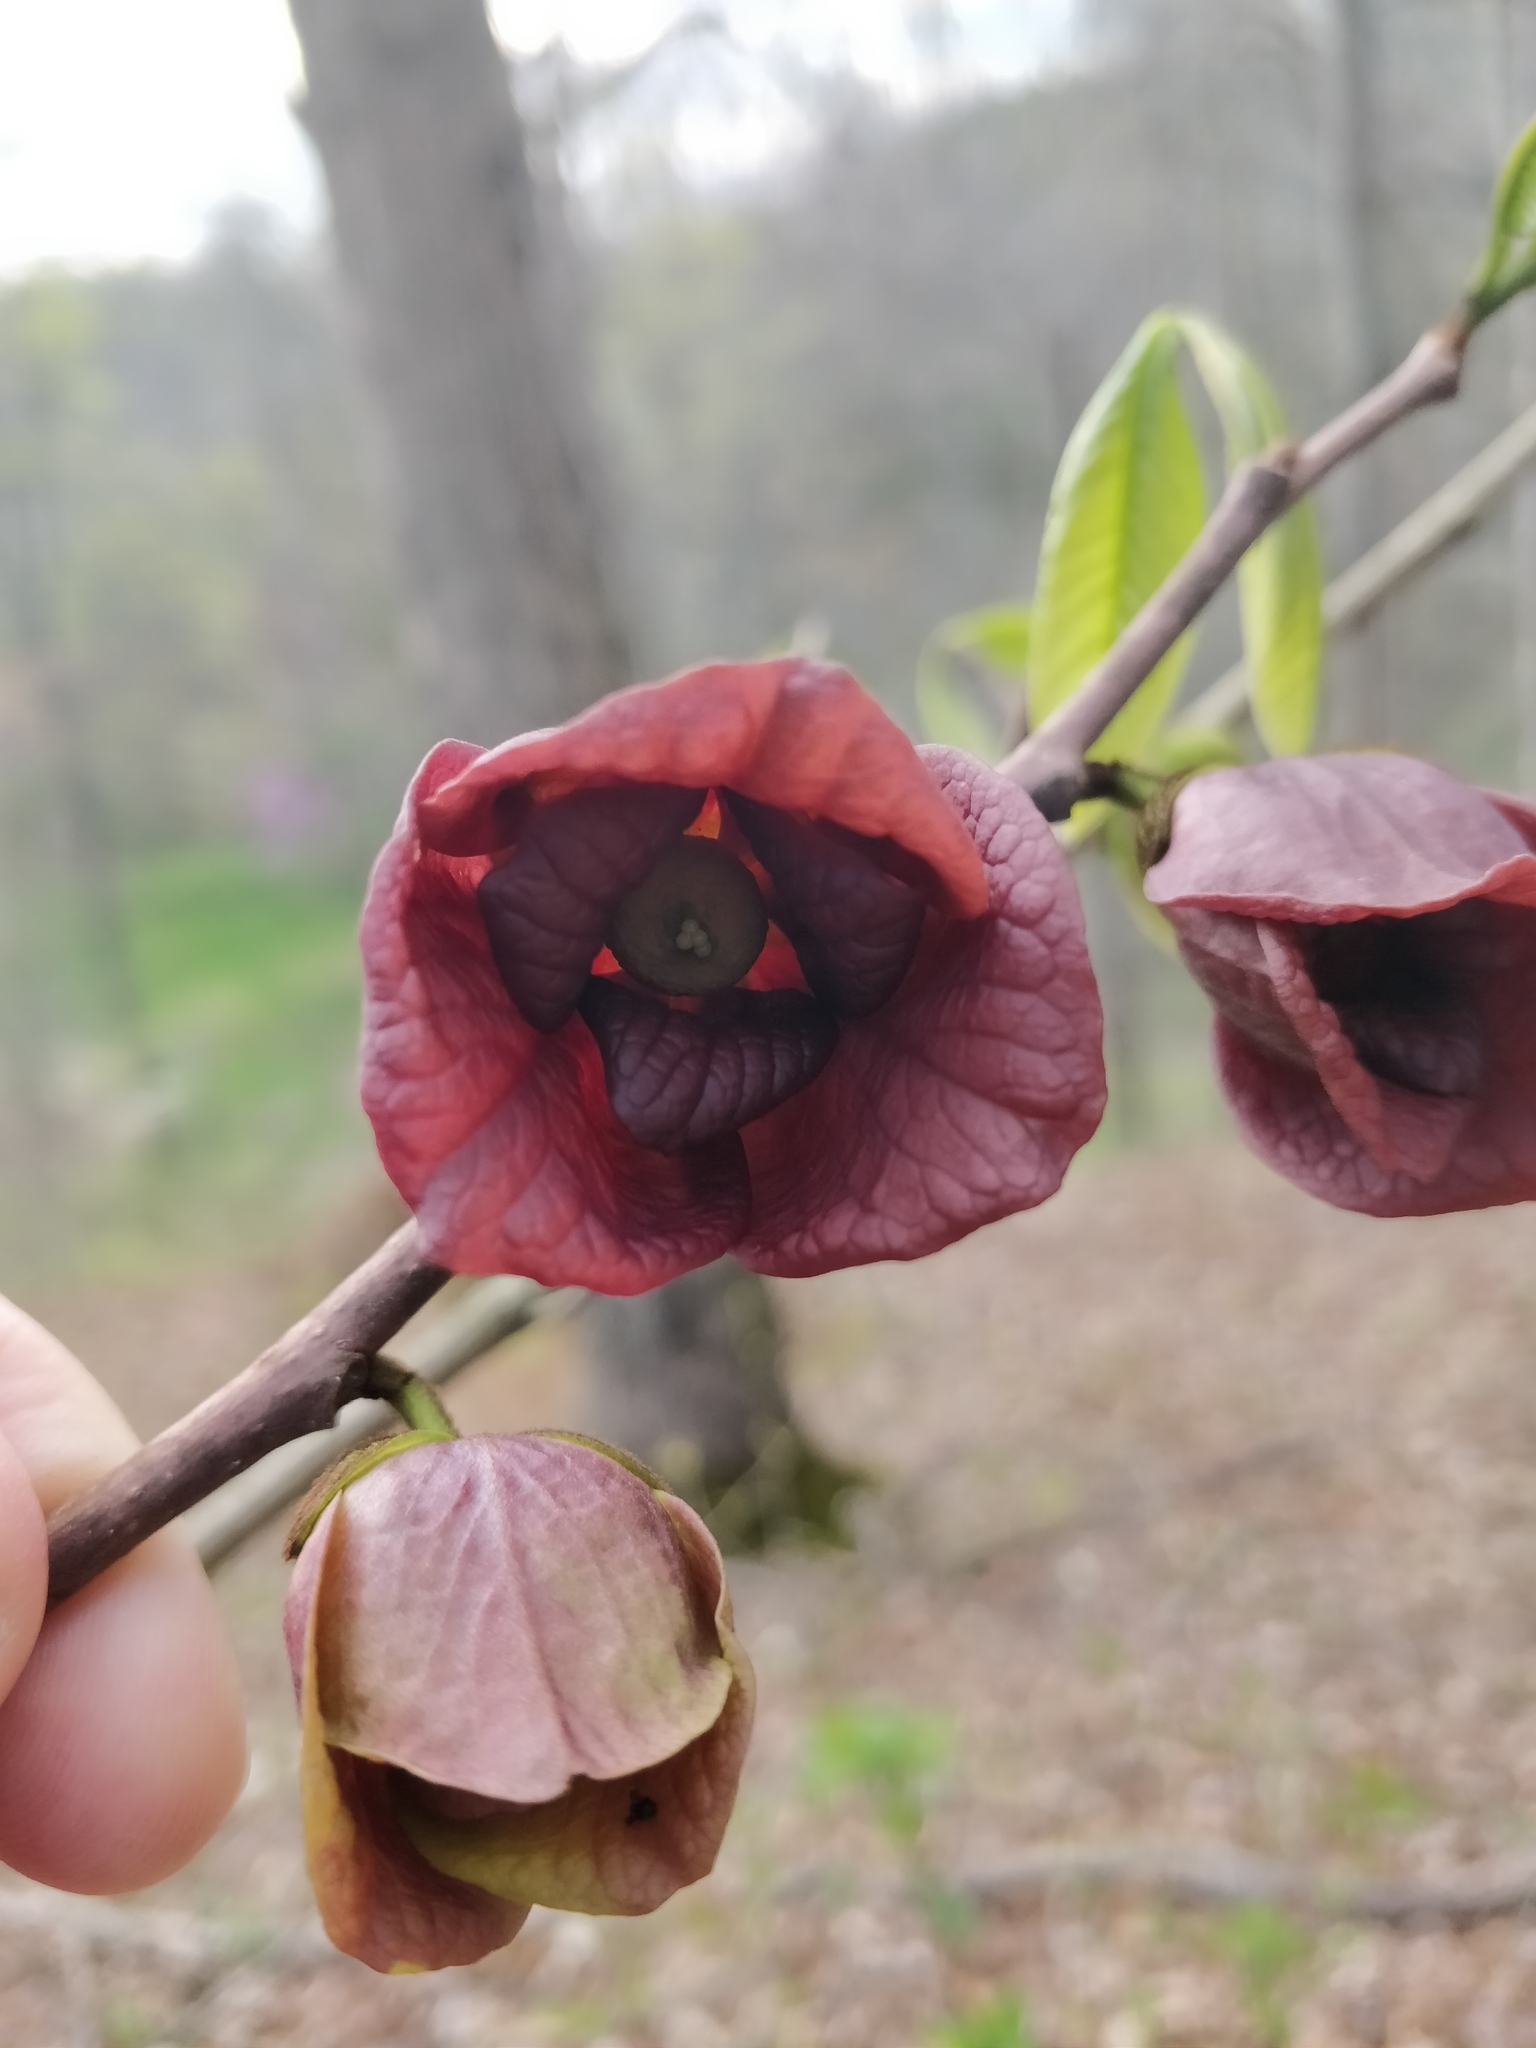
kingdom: Plantae
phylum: Tracheophyta
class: Magnoliopsida
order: Magnoliales
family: Annonaceae
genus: Asimina
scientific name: Asimina triloba
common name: Dog-banana
